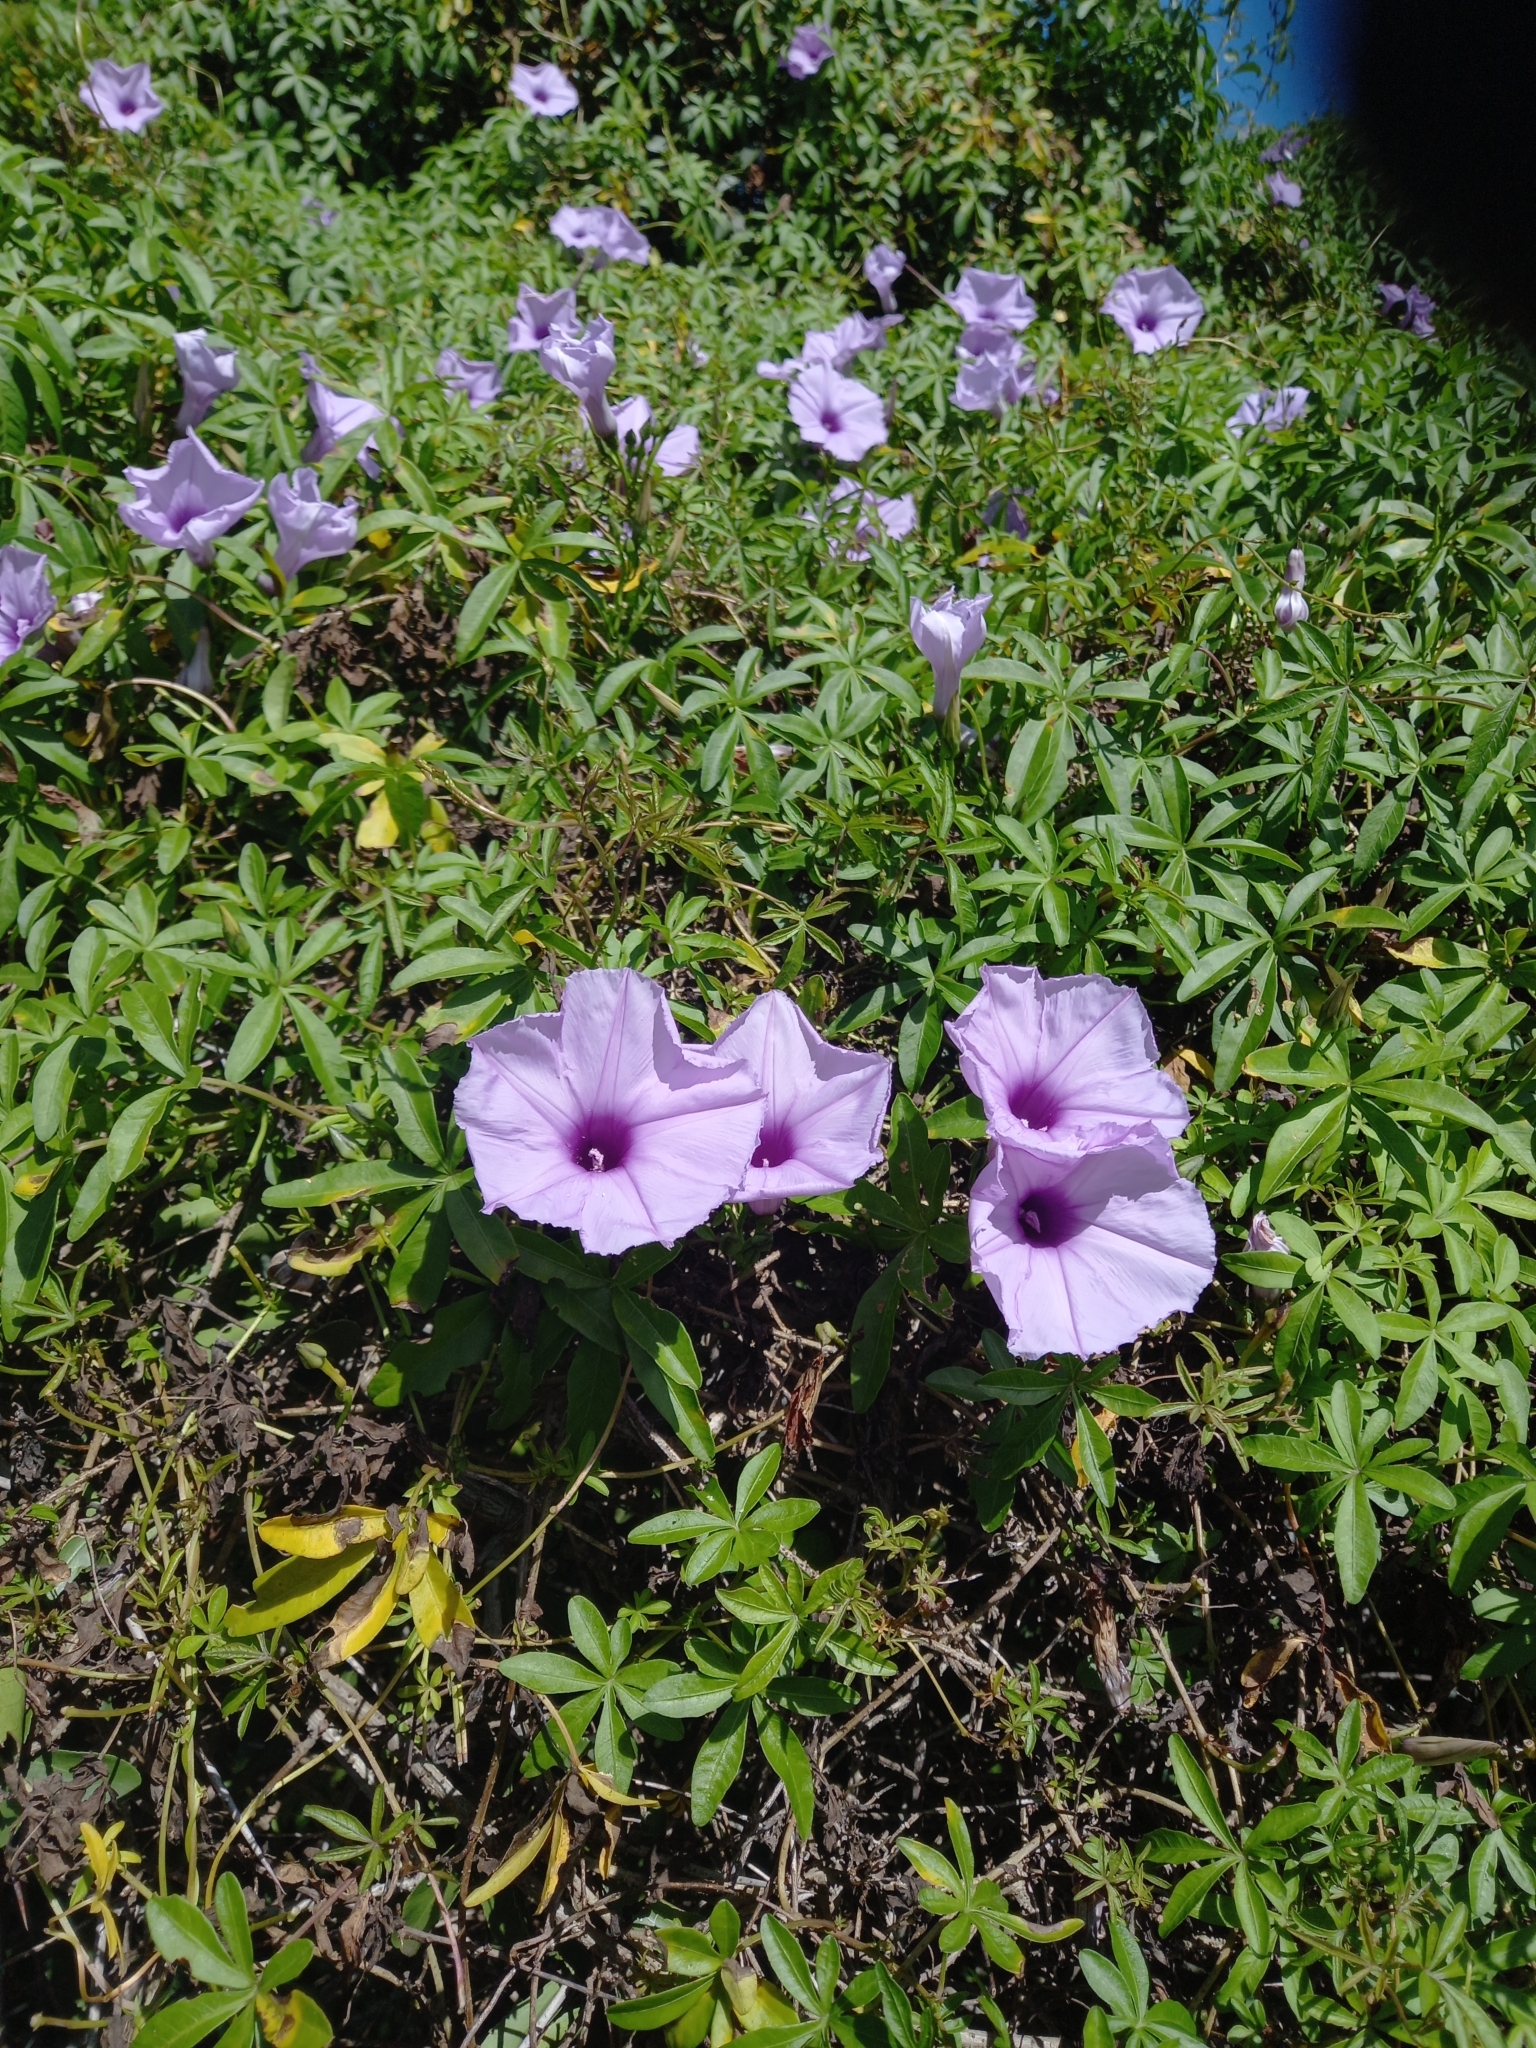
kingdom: Plantae
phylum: Tracheophyta
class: Magnoliopsida
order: Solanales
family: Convolvulaceae
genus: Ipomoea
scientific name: Ipomoea cairica
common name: Mile a minute vine
